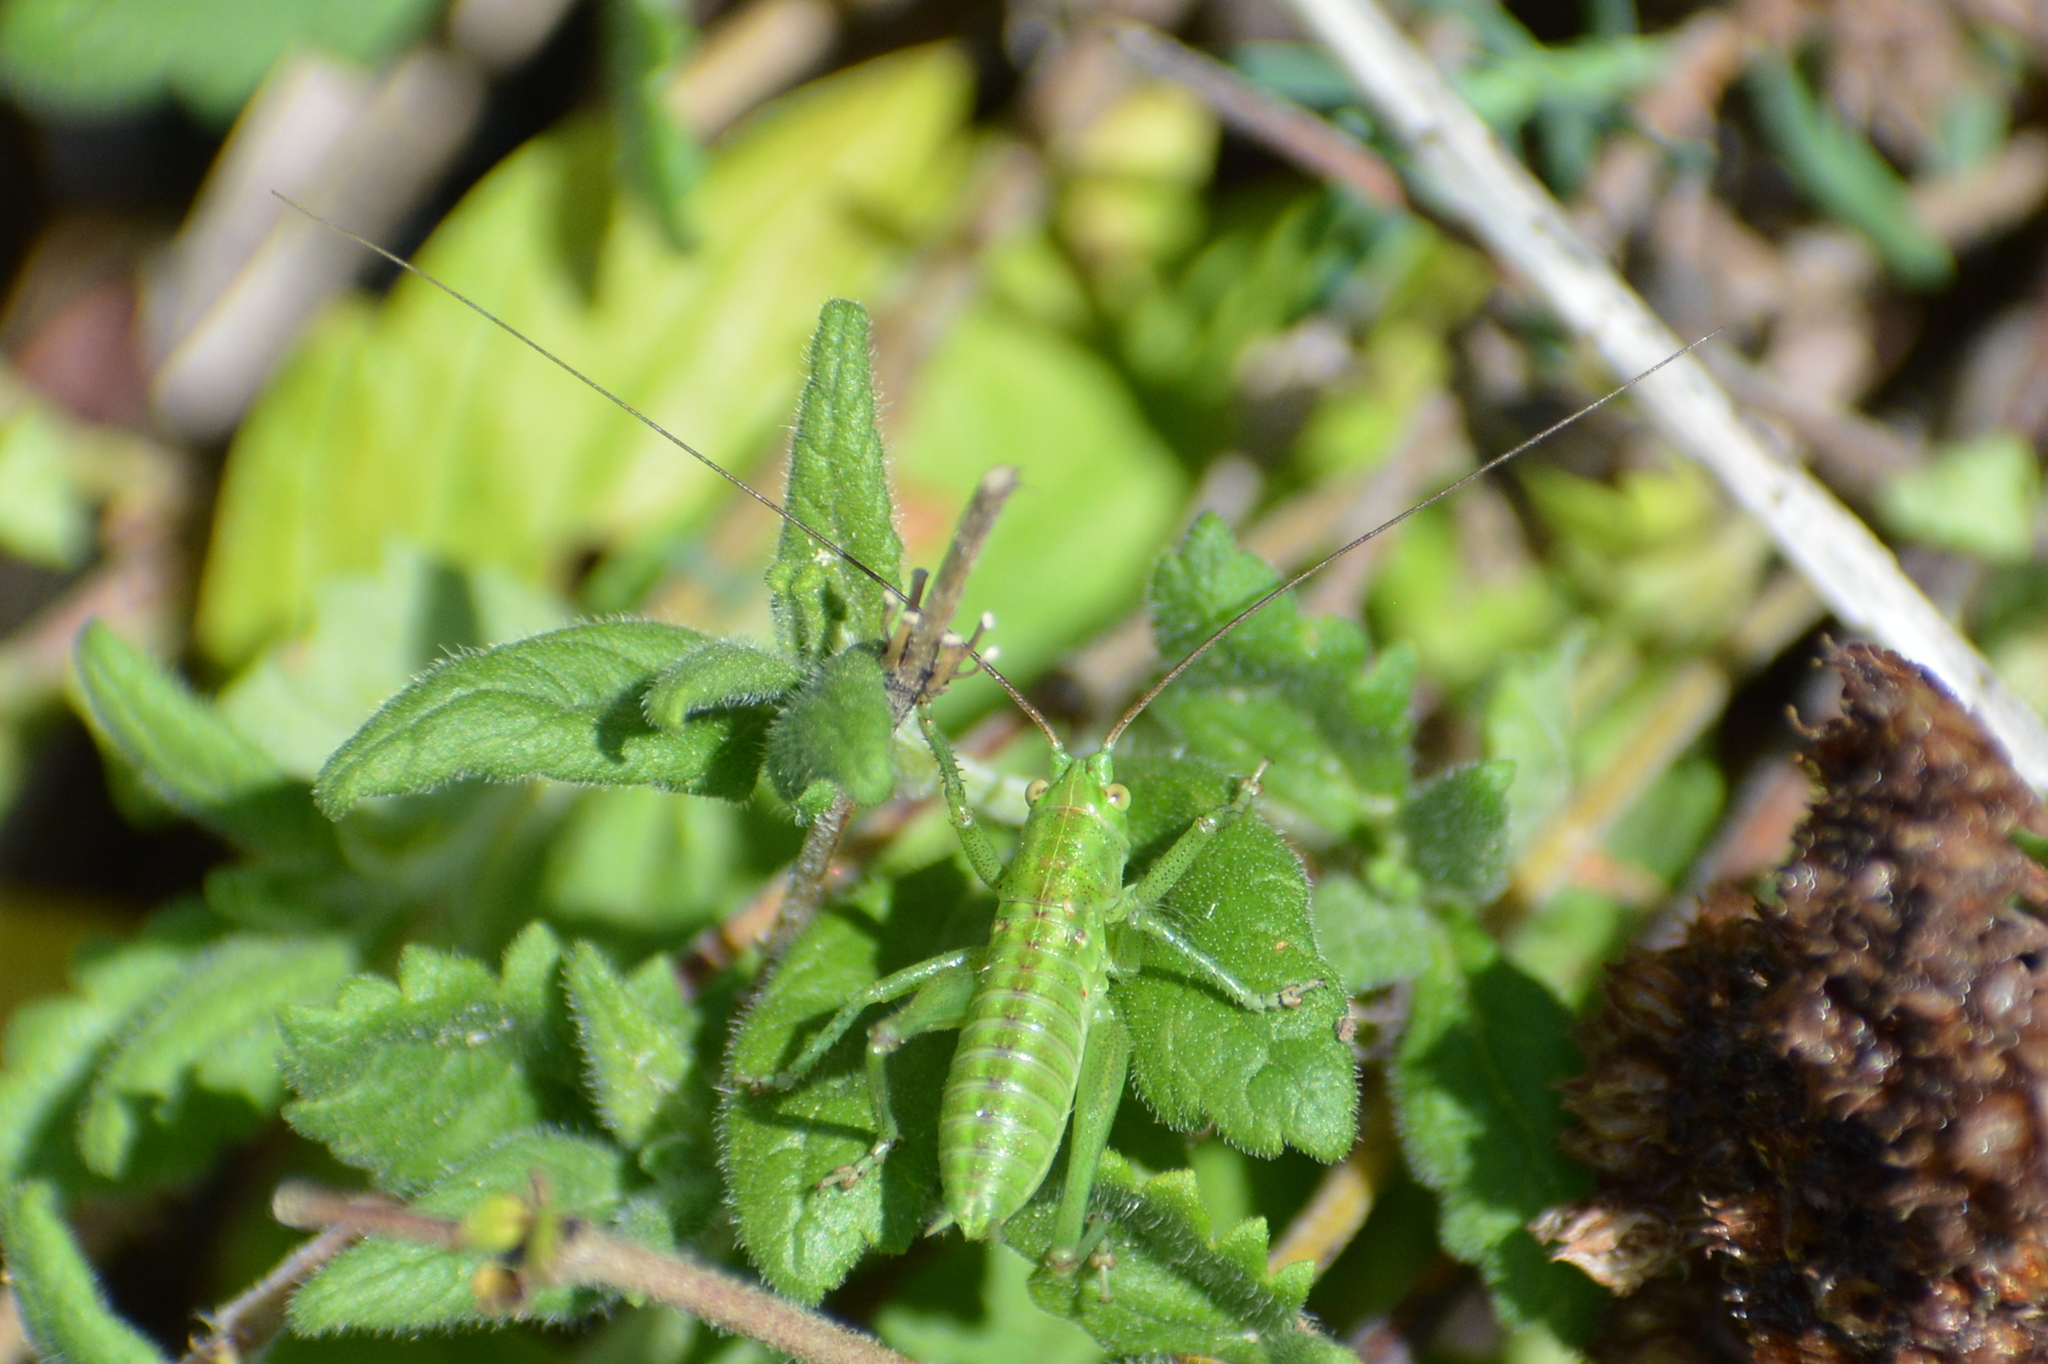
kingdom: Animalia
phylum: Arthropoda
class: Insecta
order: Orthoptera
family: Tettigoniidae
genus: Tettigonia
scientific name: Tettigonia viridissima
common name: Great green bush-cricket
